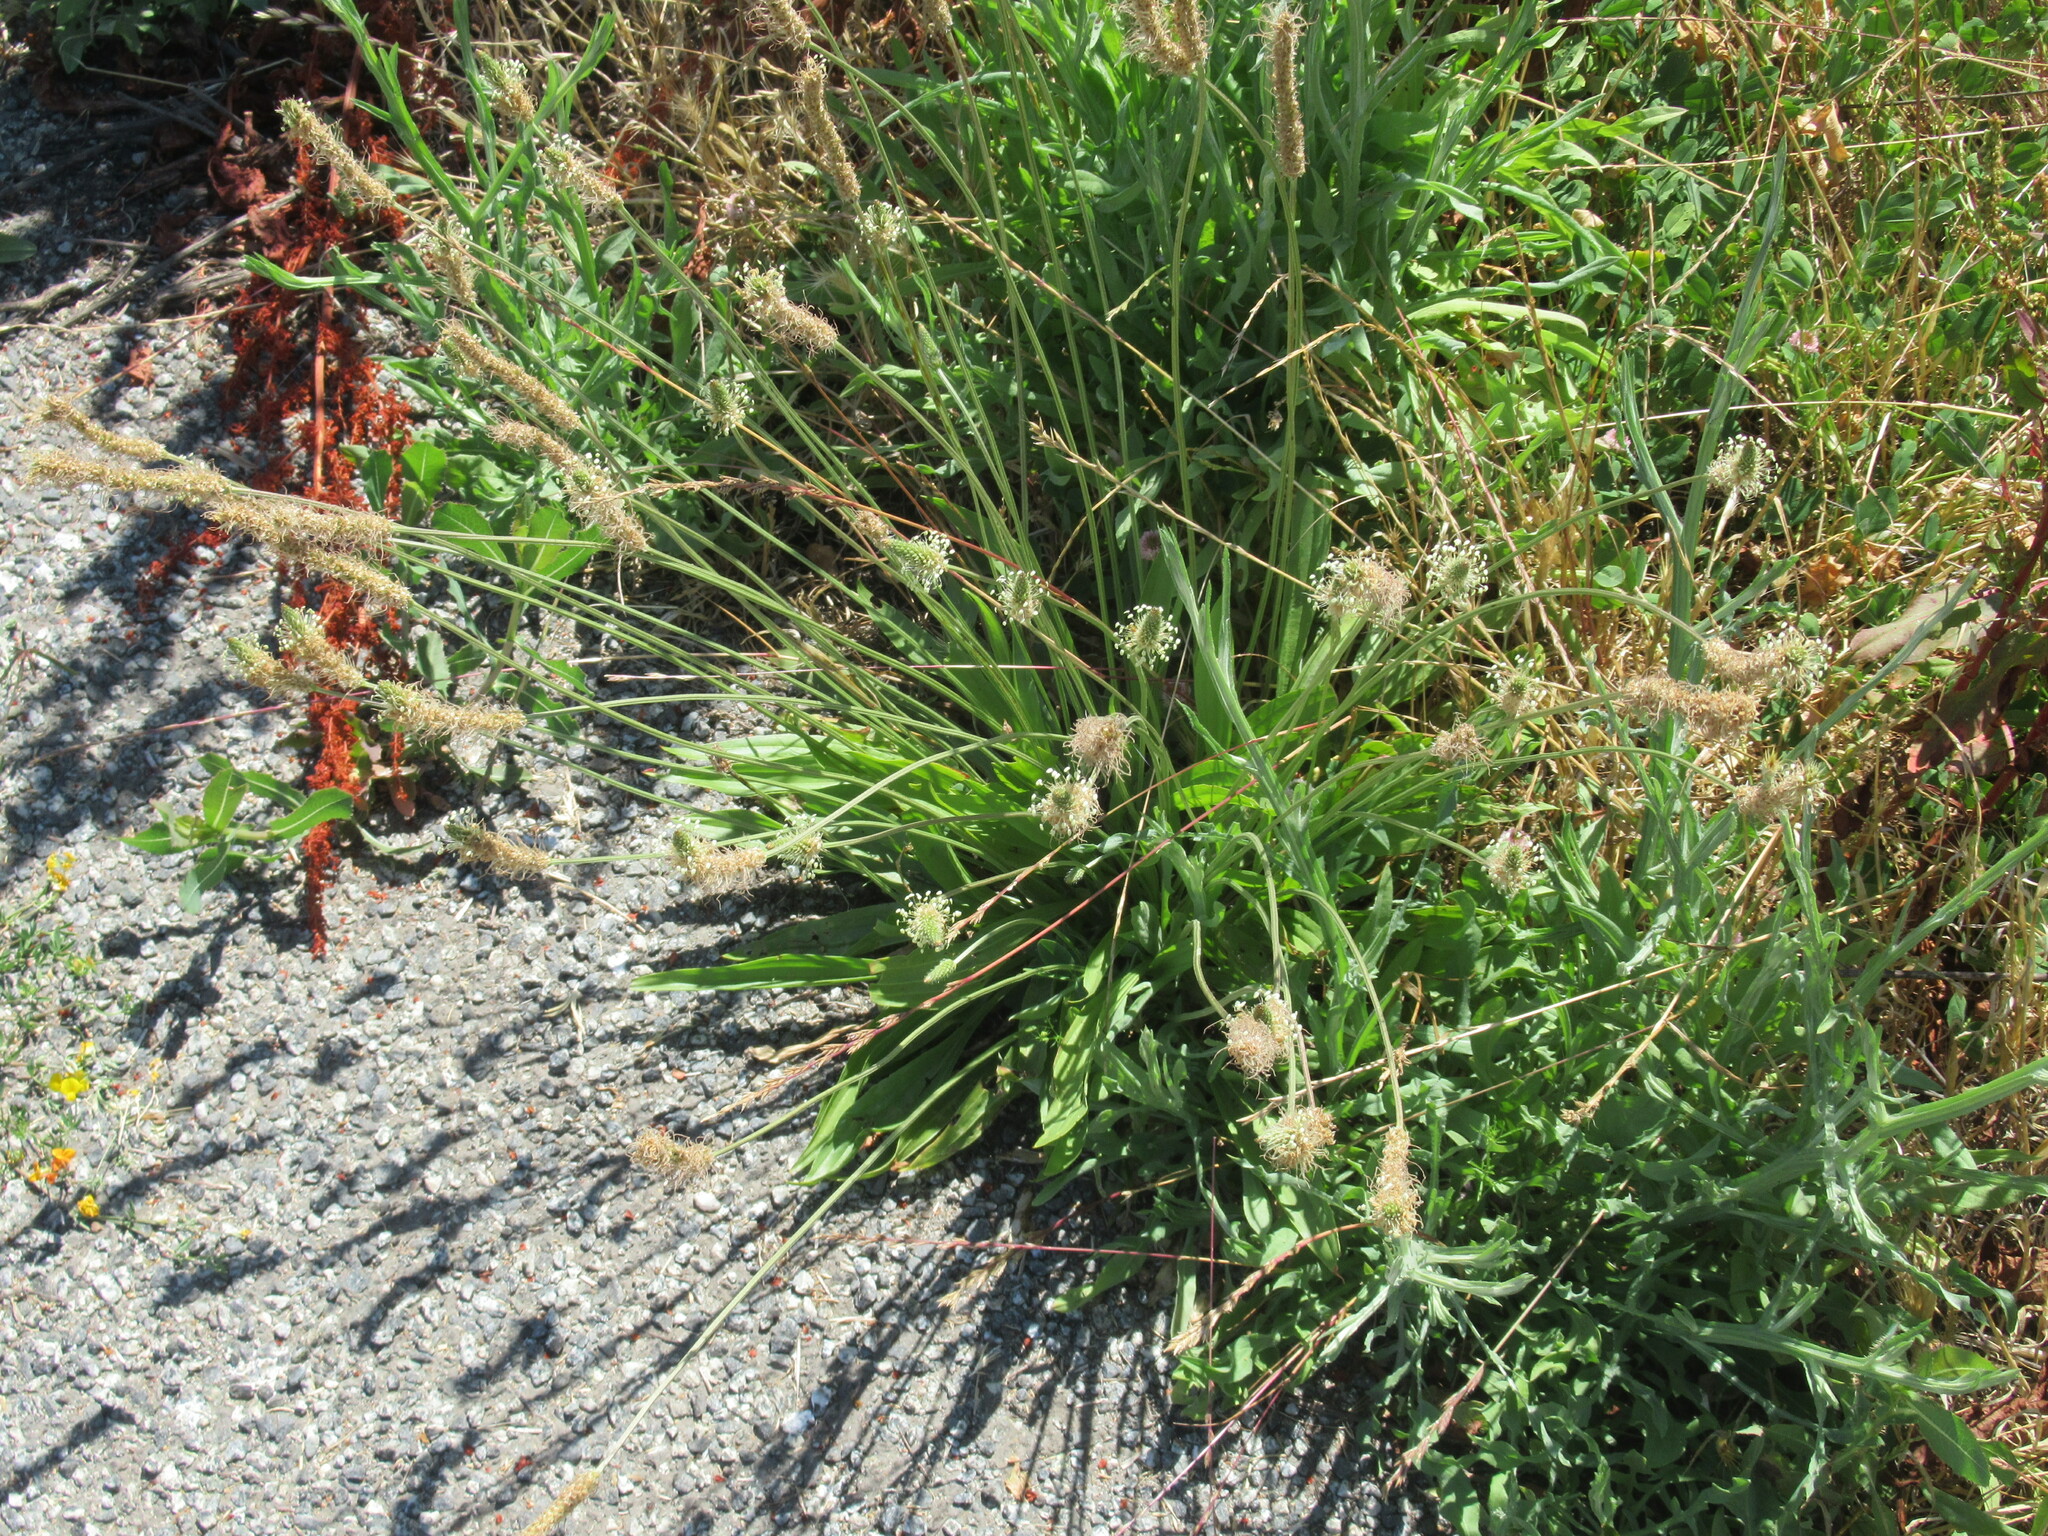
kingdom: Plantae
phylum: Tracheophyta
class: Magnoliopsida
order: Lamiales
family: Plantaginaceae
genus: Plantago
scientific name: Plantago lanceolata
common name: Ribwort plantain
